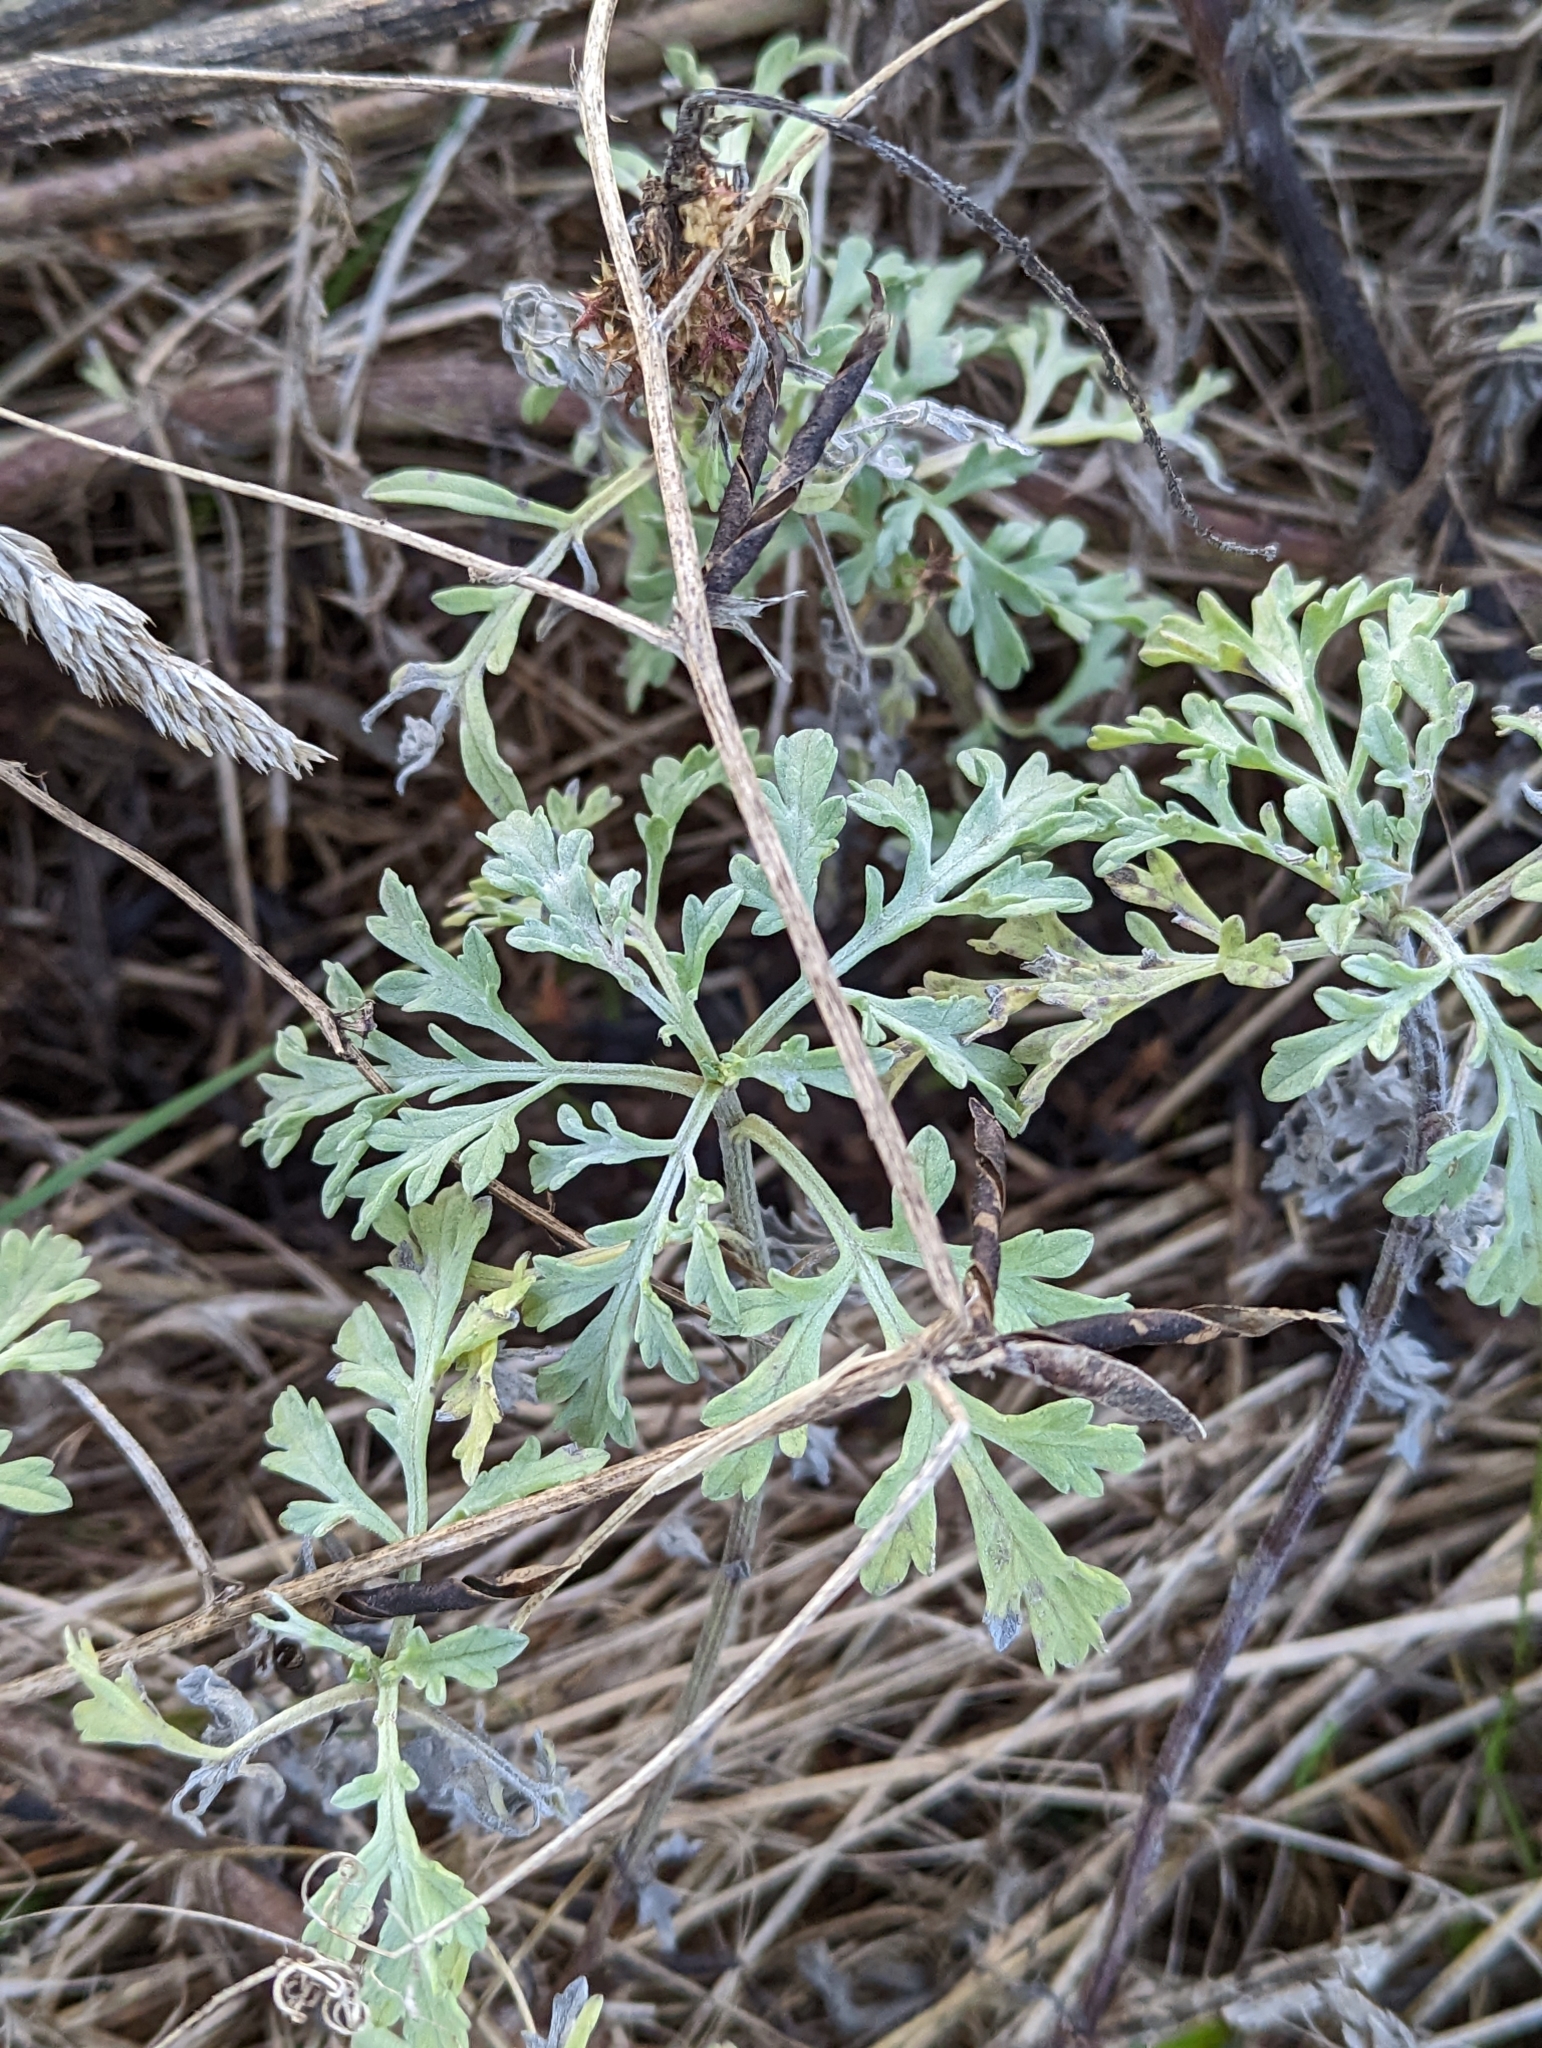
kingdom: Plantae
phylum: Tracheophyta
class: Magnoliopsida
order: Asterales
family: Asteraceae
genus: Ambrosia
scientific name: Ambrosia chamissonis
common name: Beachbur
